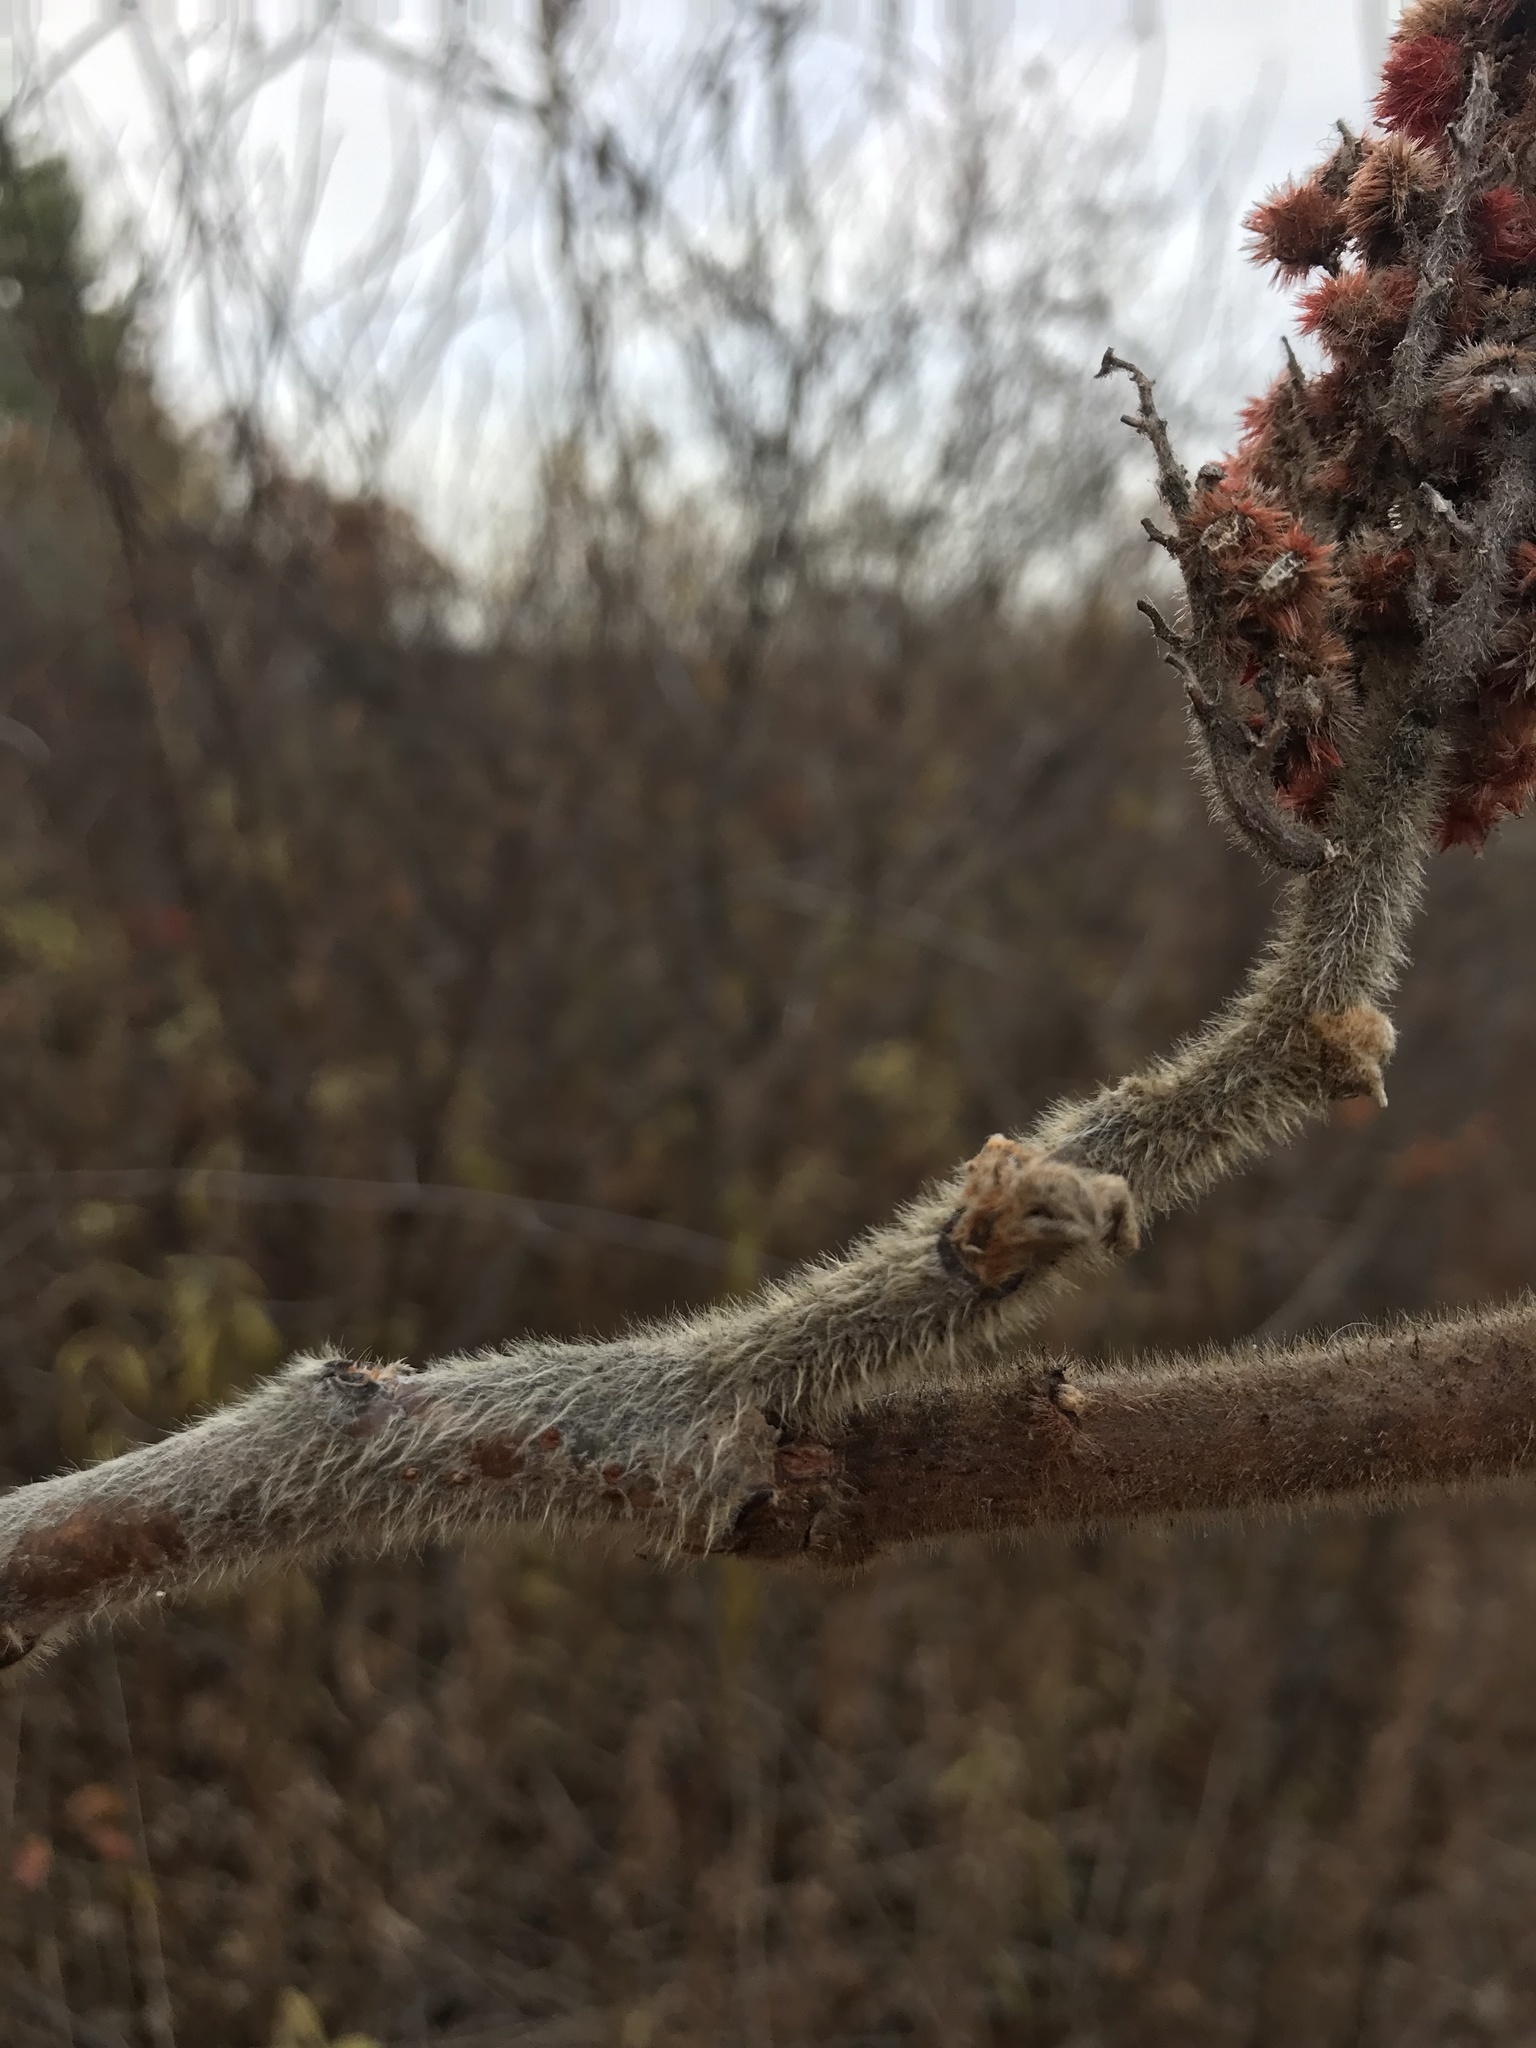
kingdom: Plantae
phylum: Tracheophyta
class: Magnoliopsida
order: Sapindales
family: Anacardiaceae
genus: Rhus
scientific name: Rhus typhina
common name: Staghorn sumac
